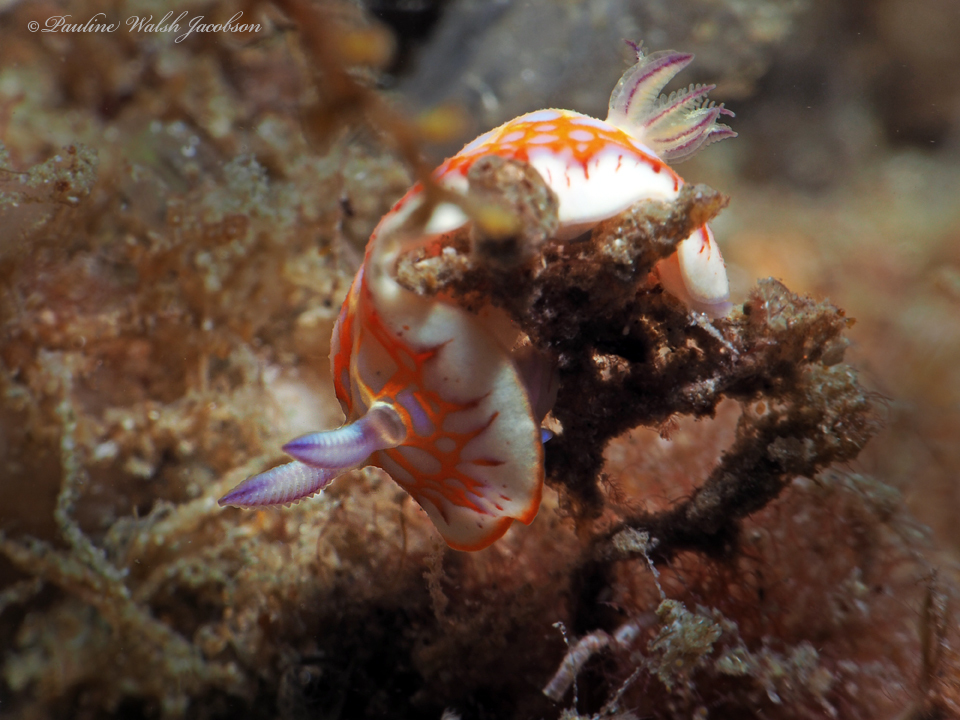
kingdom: Animalia
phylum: Mollusca
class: Gastropoda
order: Nudibranchia
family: Chromodorididae
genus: Felimida
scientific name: Felimida binza
